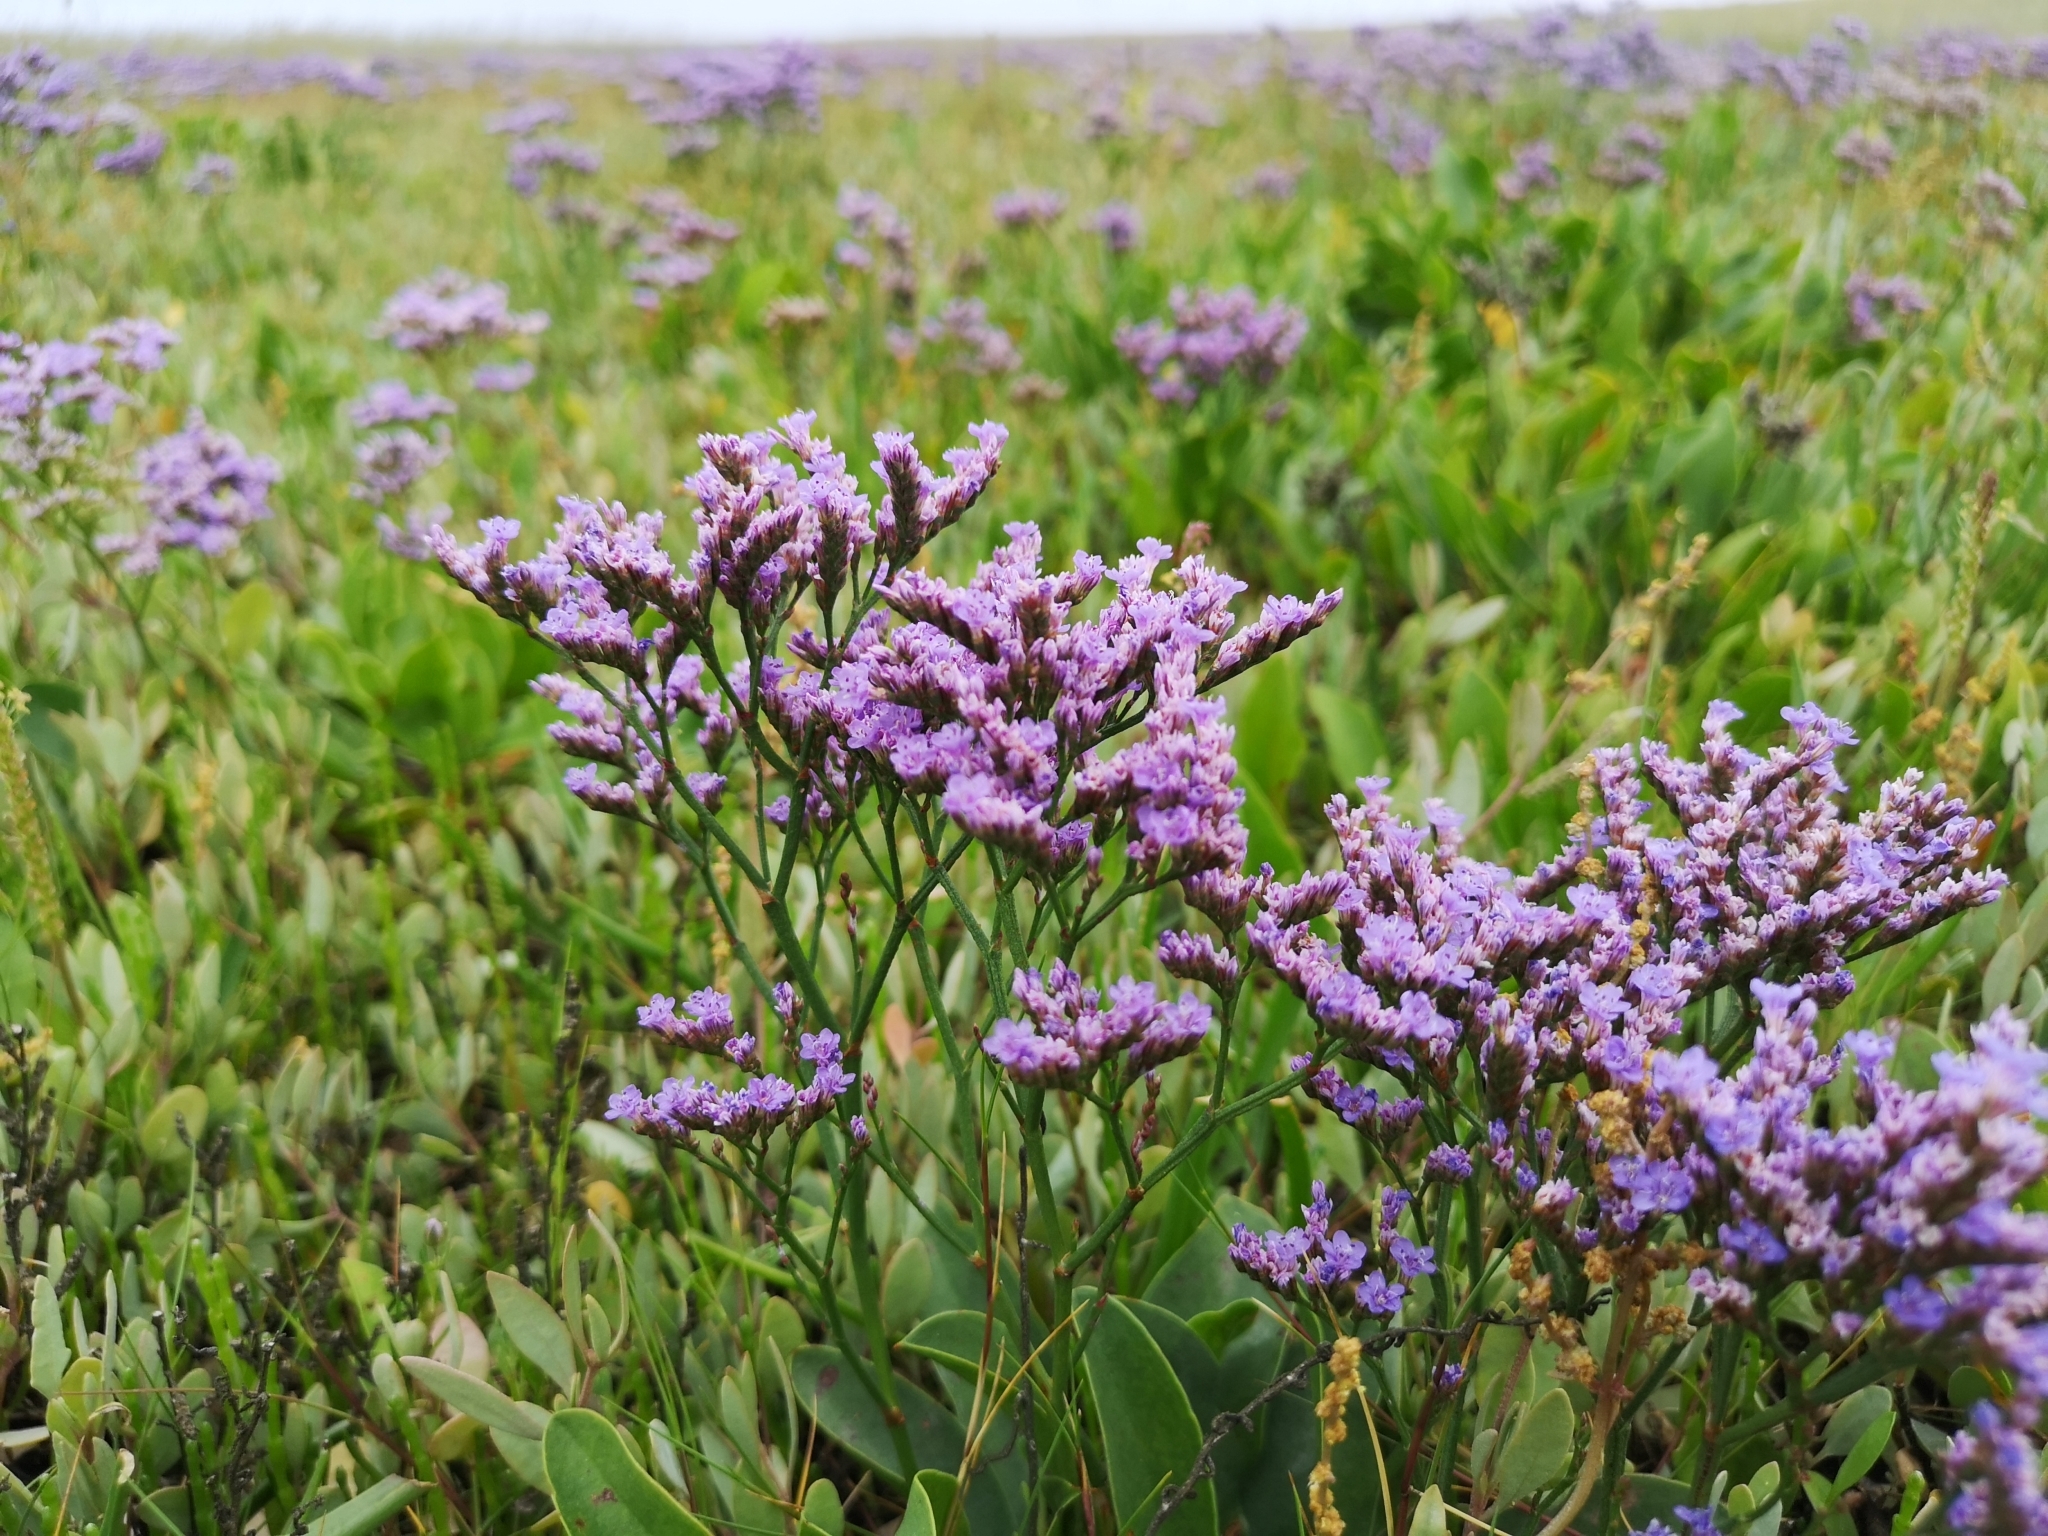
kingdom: Plantae
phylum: Tracheophyta
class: Magnoliopsida
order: Caryophyllales
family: Plumbaginaceae
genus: Limonium
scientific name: Limonium vulgare
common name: Common sea-lavender
